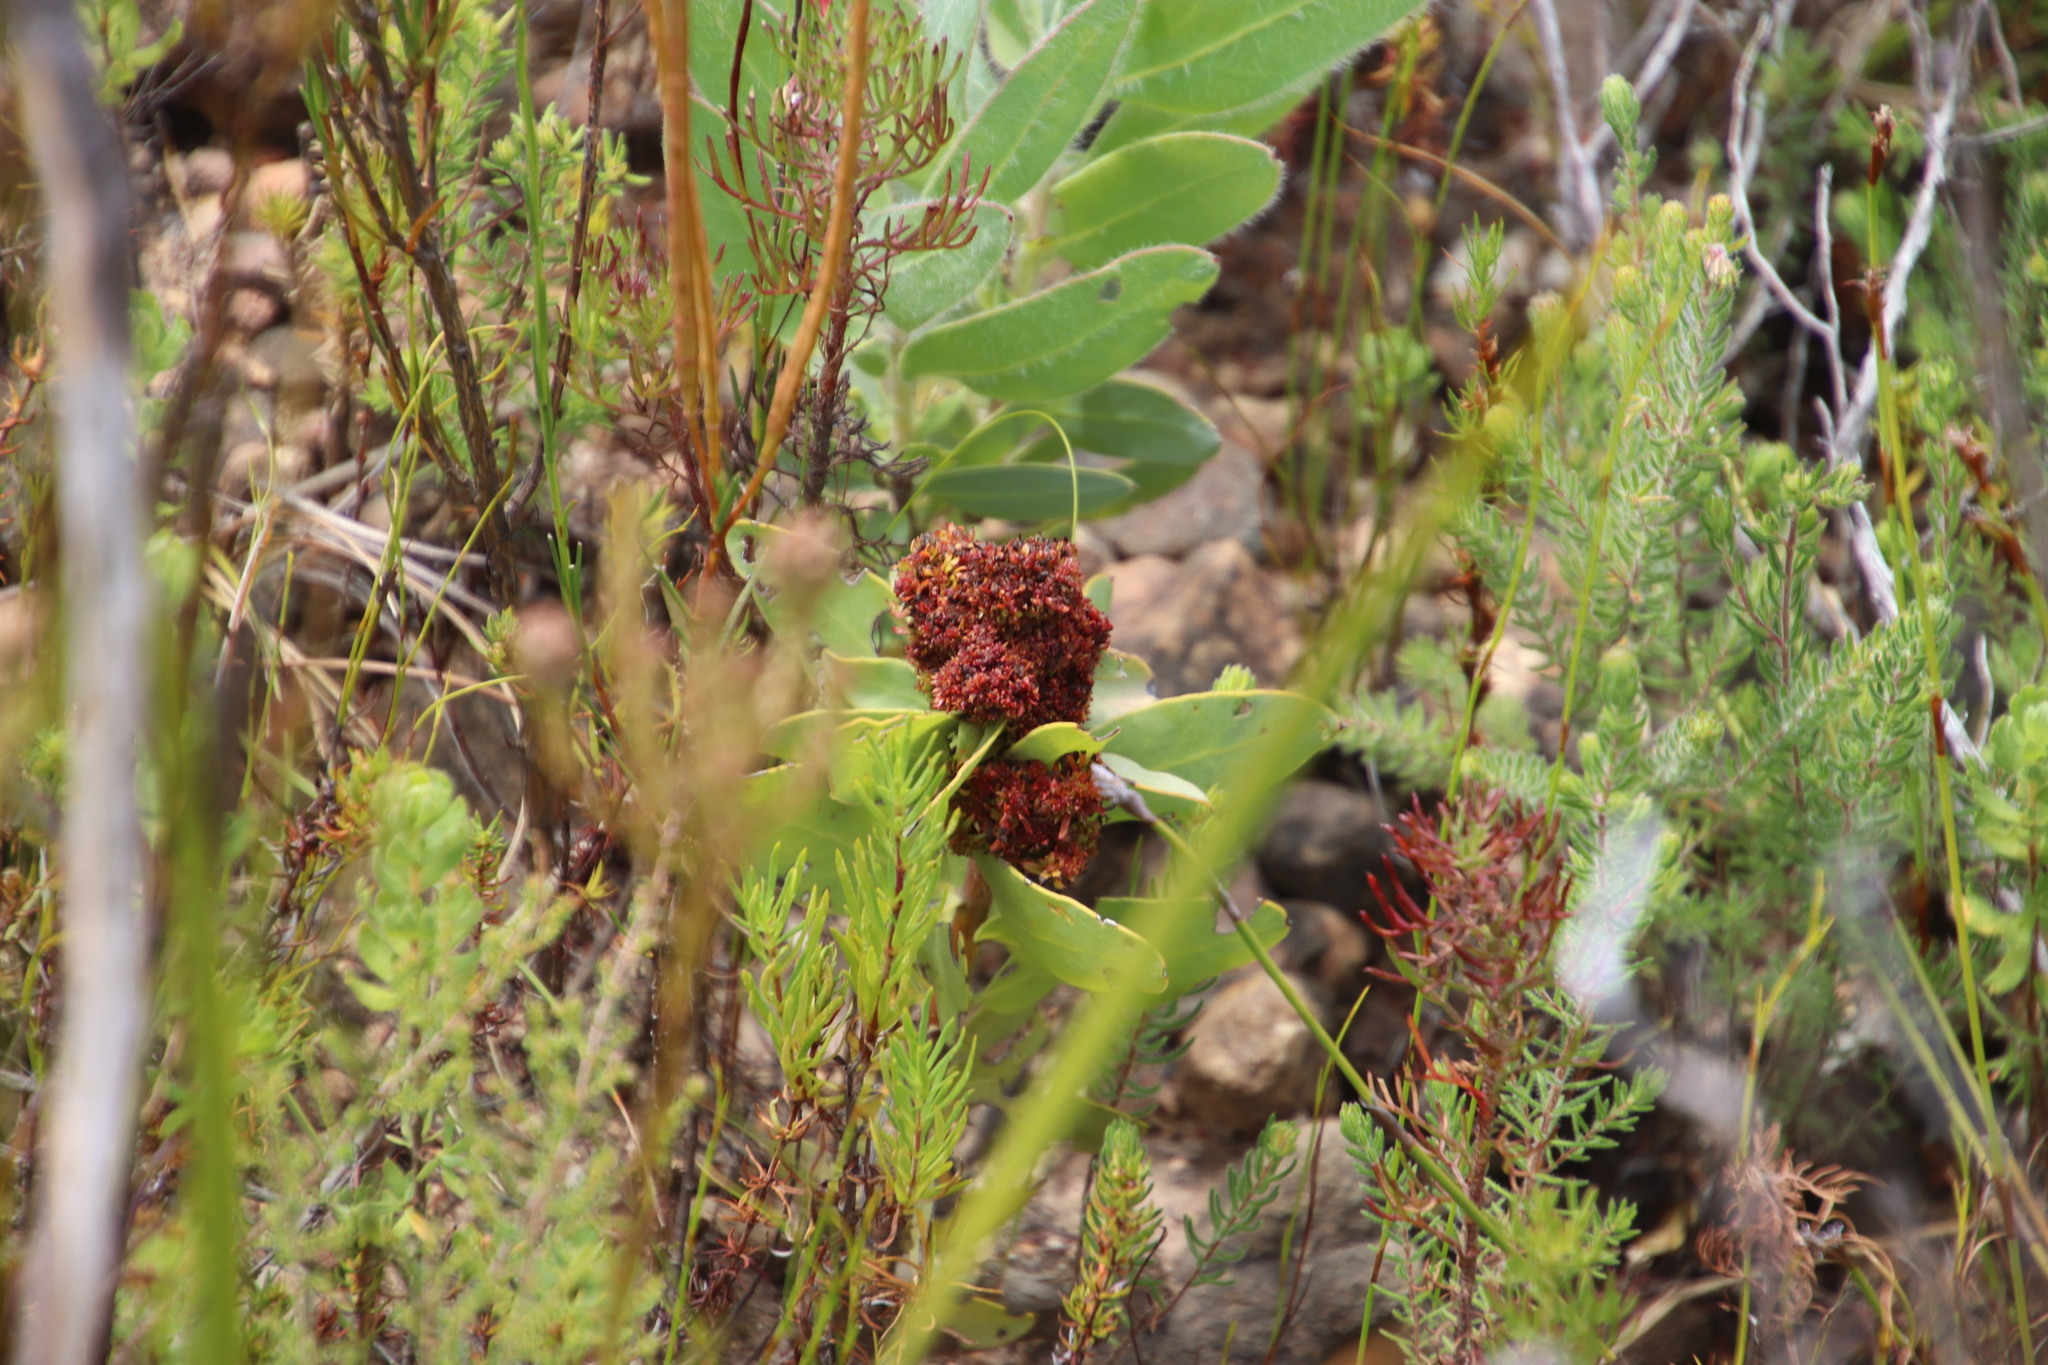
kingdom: Bacteria
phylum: Firmicutes
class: Bacilli
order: Acholeplasmatales
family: Acholeplasmataceae
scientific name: Acholeplasmataceae
